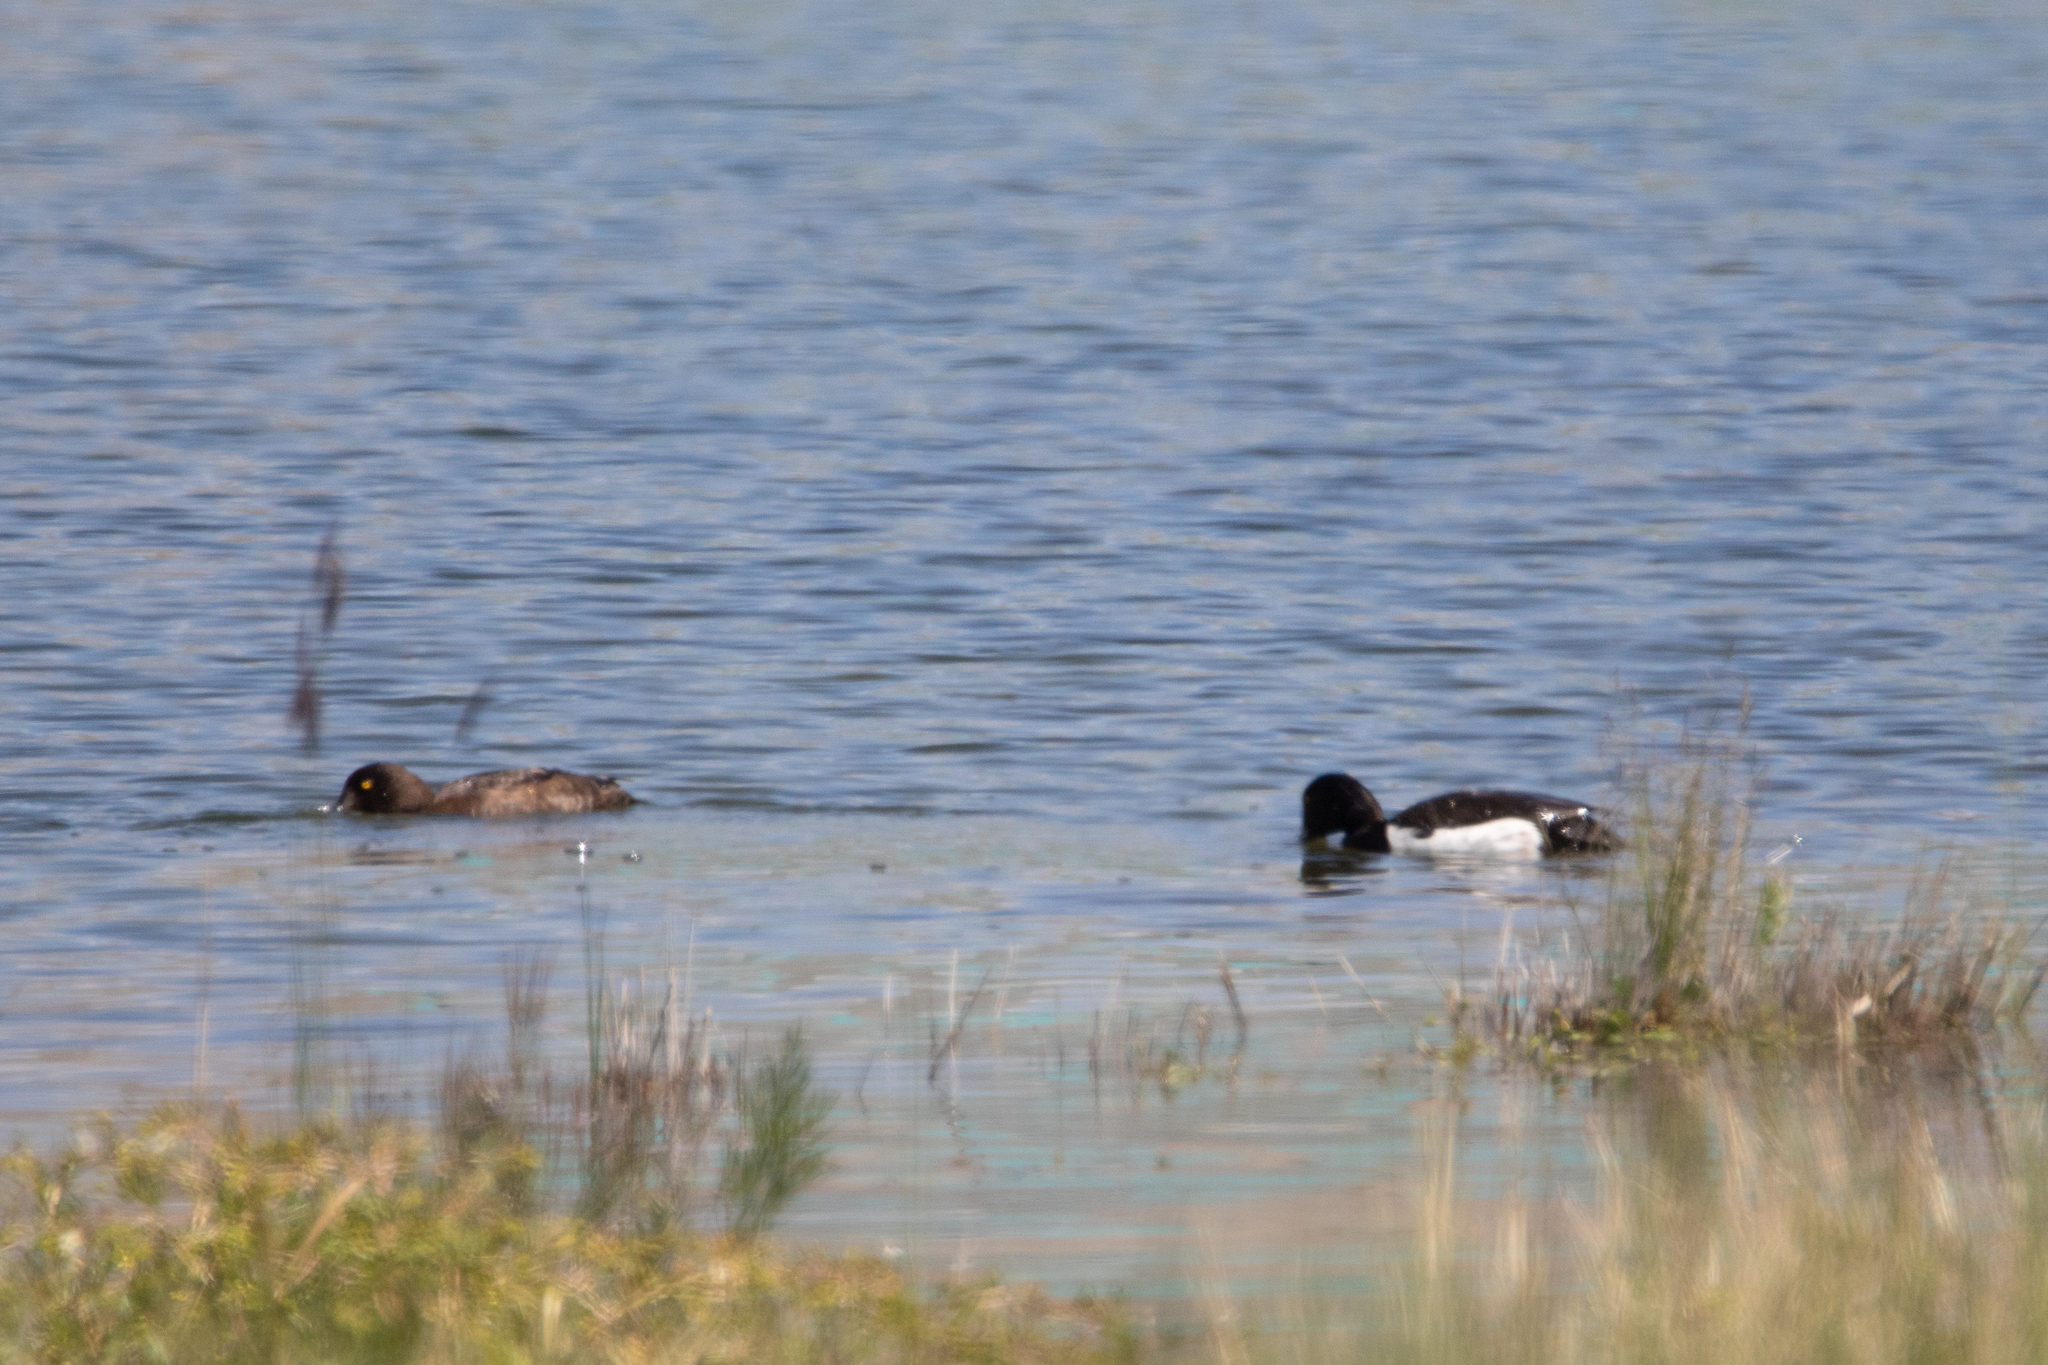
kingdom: Animalia
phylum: Chordata
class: Aves
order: Anseriformes
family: Anatidae
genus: Aythya
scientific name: Aythya fuligula
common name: Tufted duck
